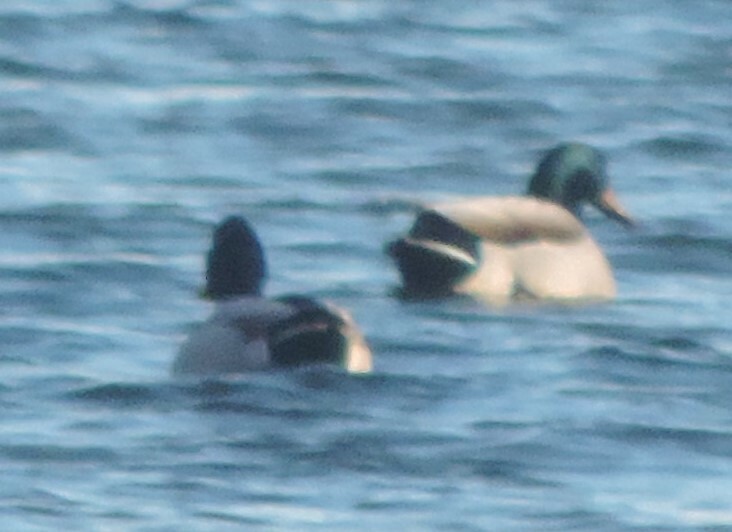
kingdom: Animalia
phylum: Chordata
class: Aves
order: Anseriformes
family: Anatidae
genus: Anas
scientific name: Anas platyrhynchos
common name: Mallard
